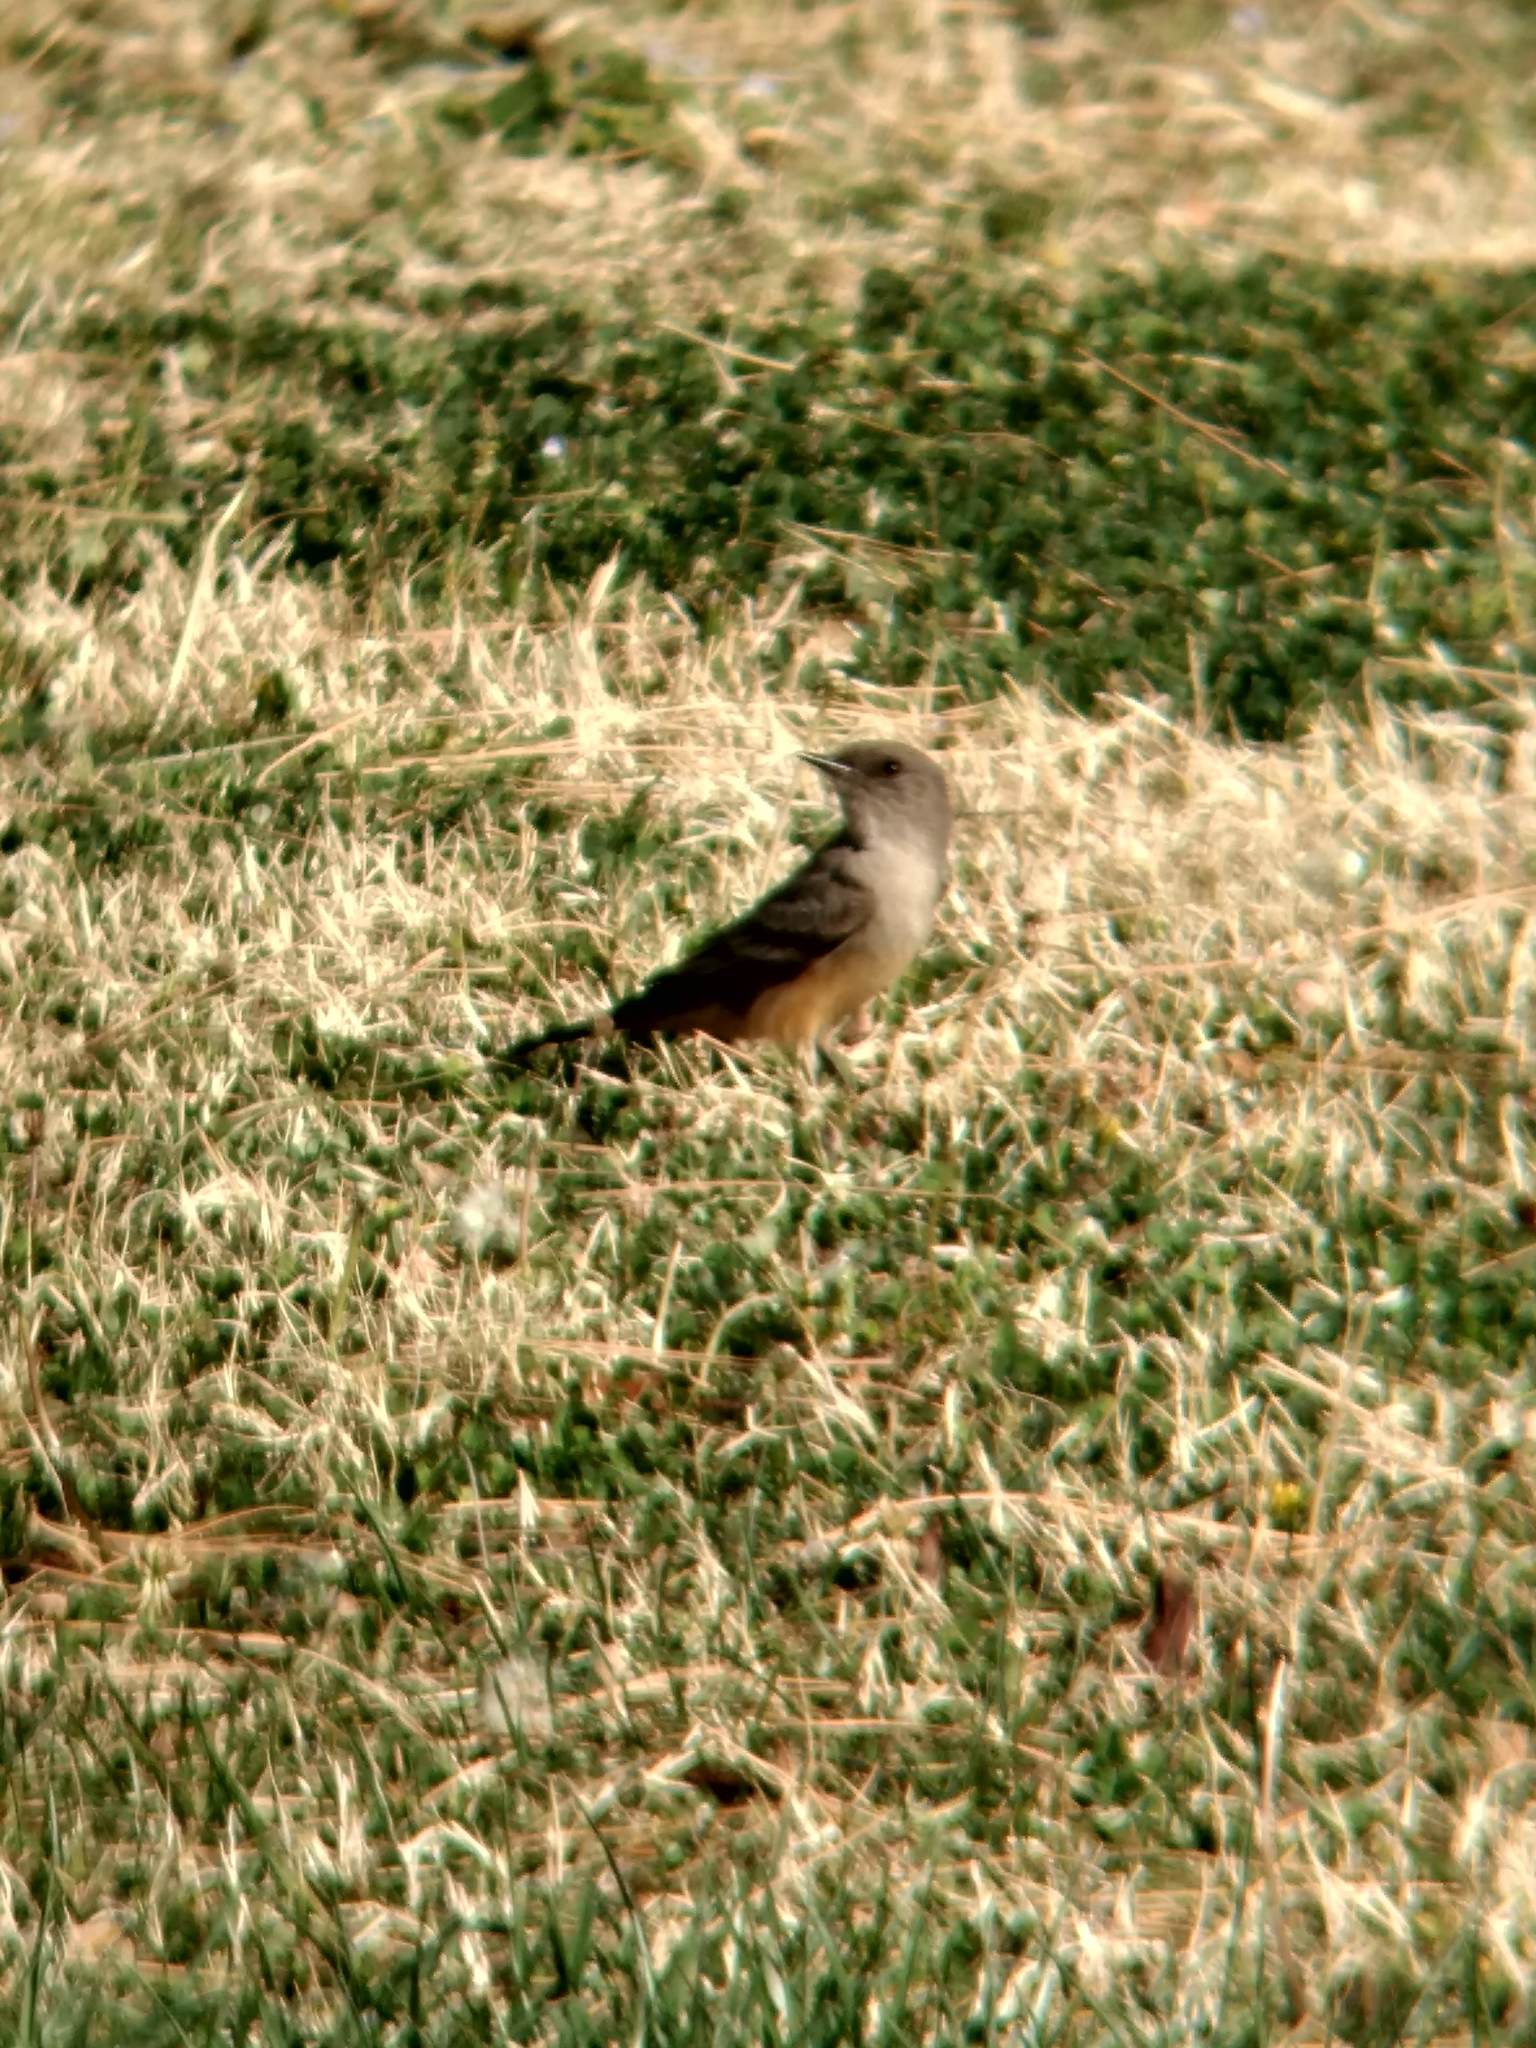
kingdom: Animalia
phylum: Chordata
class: Aves
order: Passeriformes
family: Tyrannidae
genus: Sayornis
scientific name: Sayornis saya
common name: Say's phoebe
